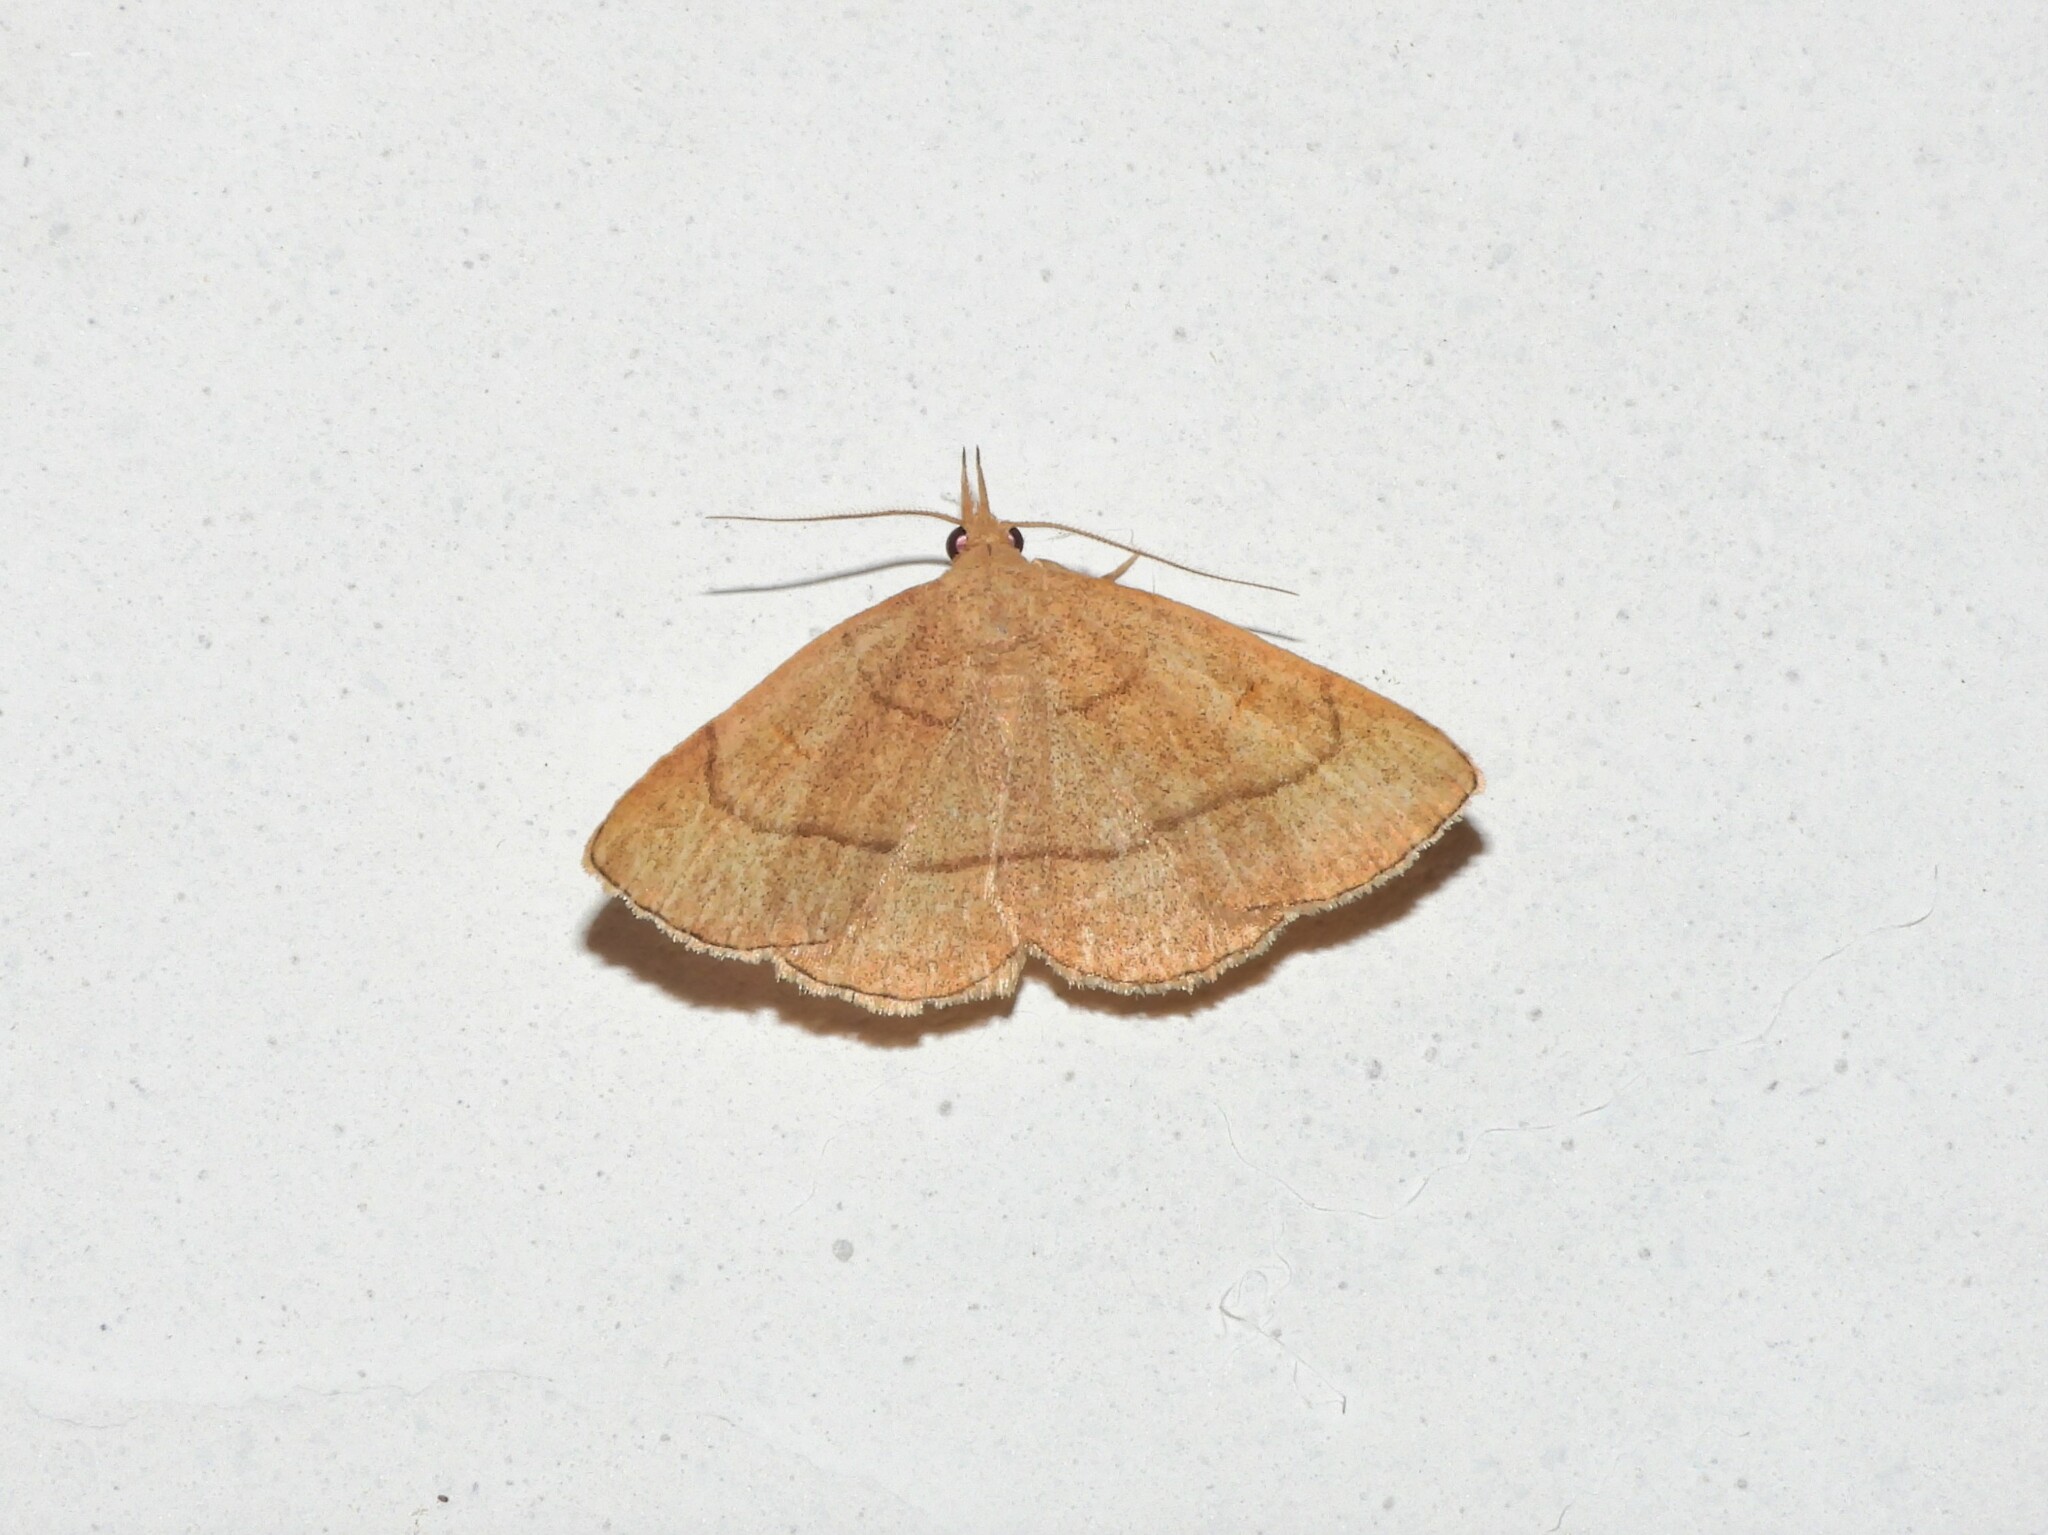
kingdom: Animalia
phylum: Arthropoda
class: Insecta
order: Lepidoptera
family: Erebidae
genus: Paracolax
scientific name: Paracolax tristalis
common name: Clay fan-foot
